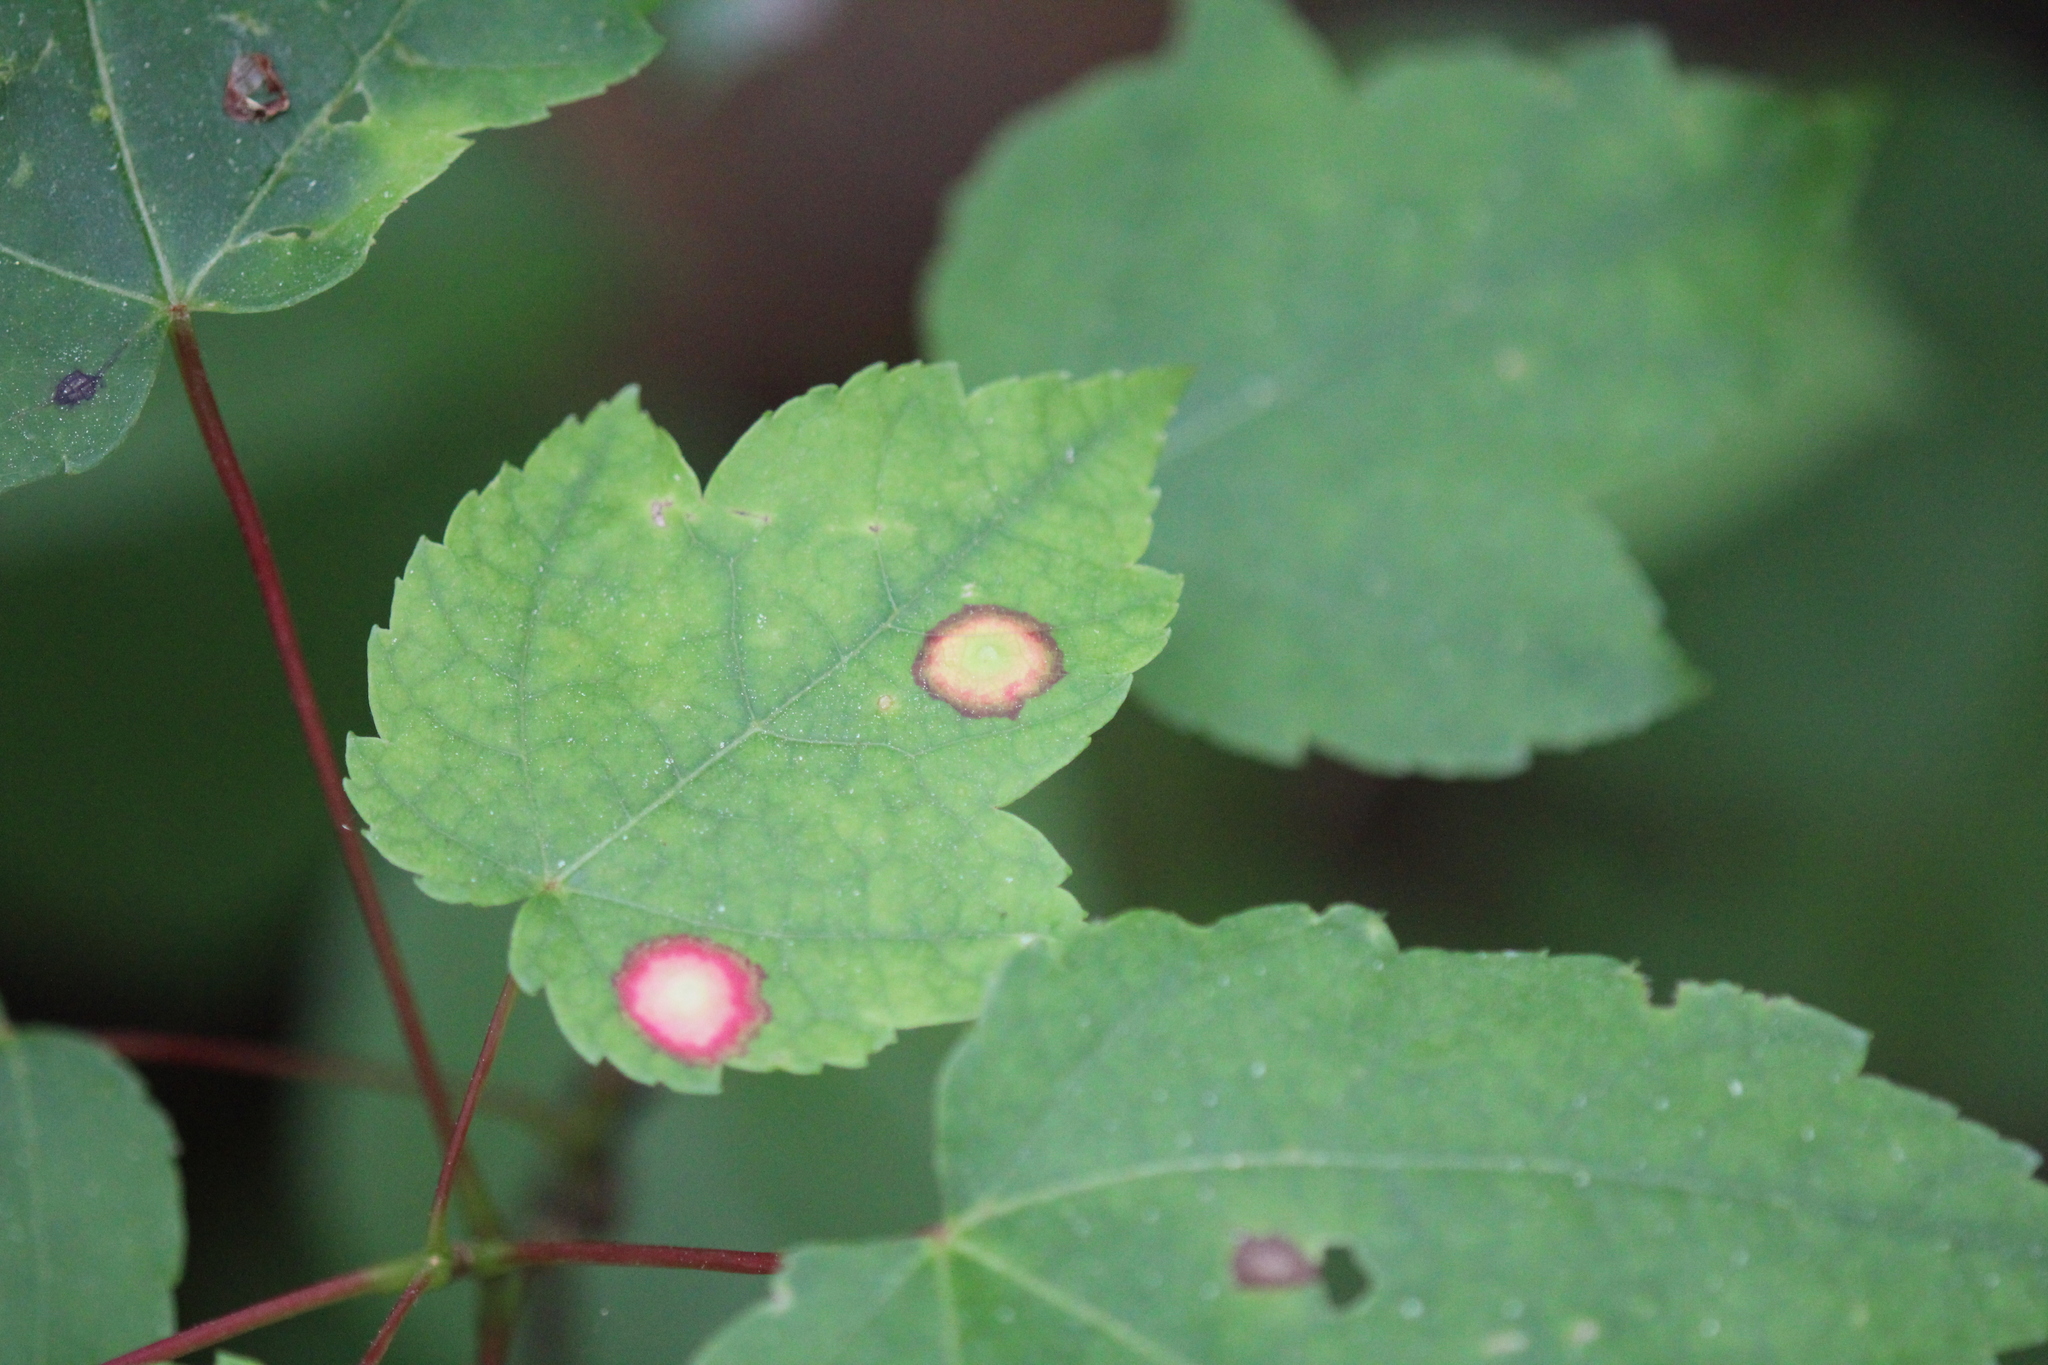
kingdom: Plantae
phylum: Tracheophyta
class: Magnoliopsida
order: Sapindales
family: Sapindaceae
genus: Acer
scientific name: Acer rubrum
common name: Red maple
